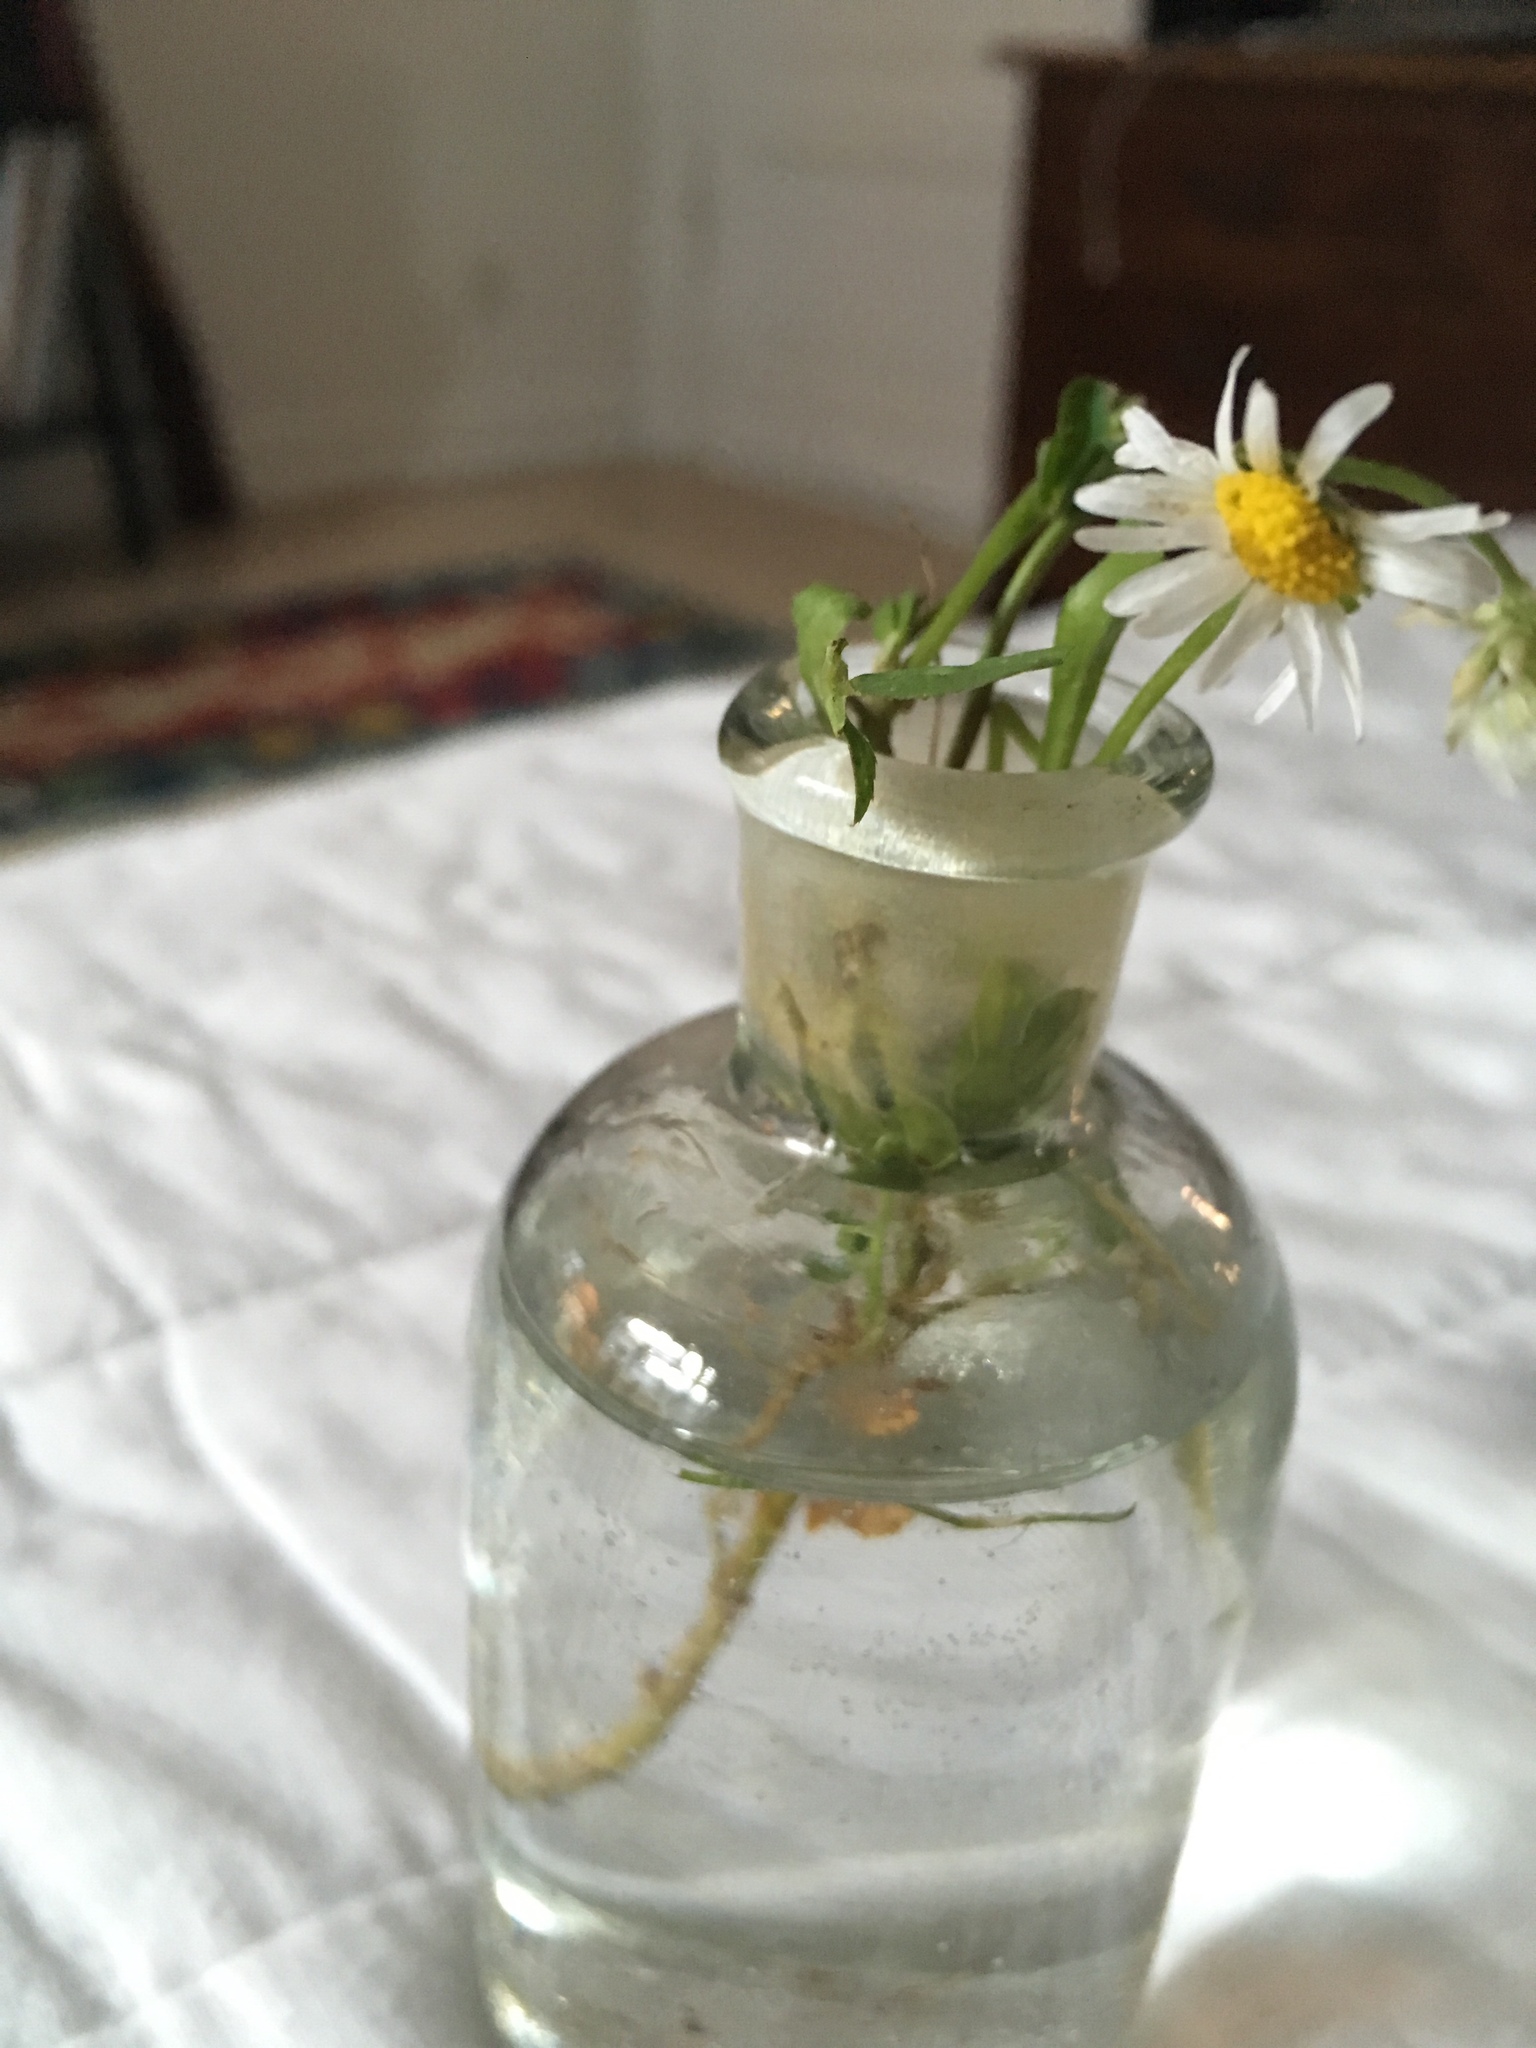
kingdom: Plantae
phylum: Tracheophyta
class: Magnoliopsida
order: Asterales
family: Asteraceae
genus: Bellis
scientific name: Bellis perennis
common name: Lawndaisy
